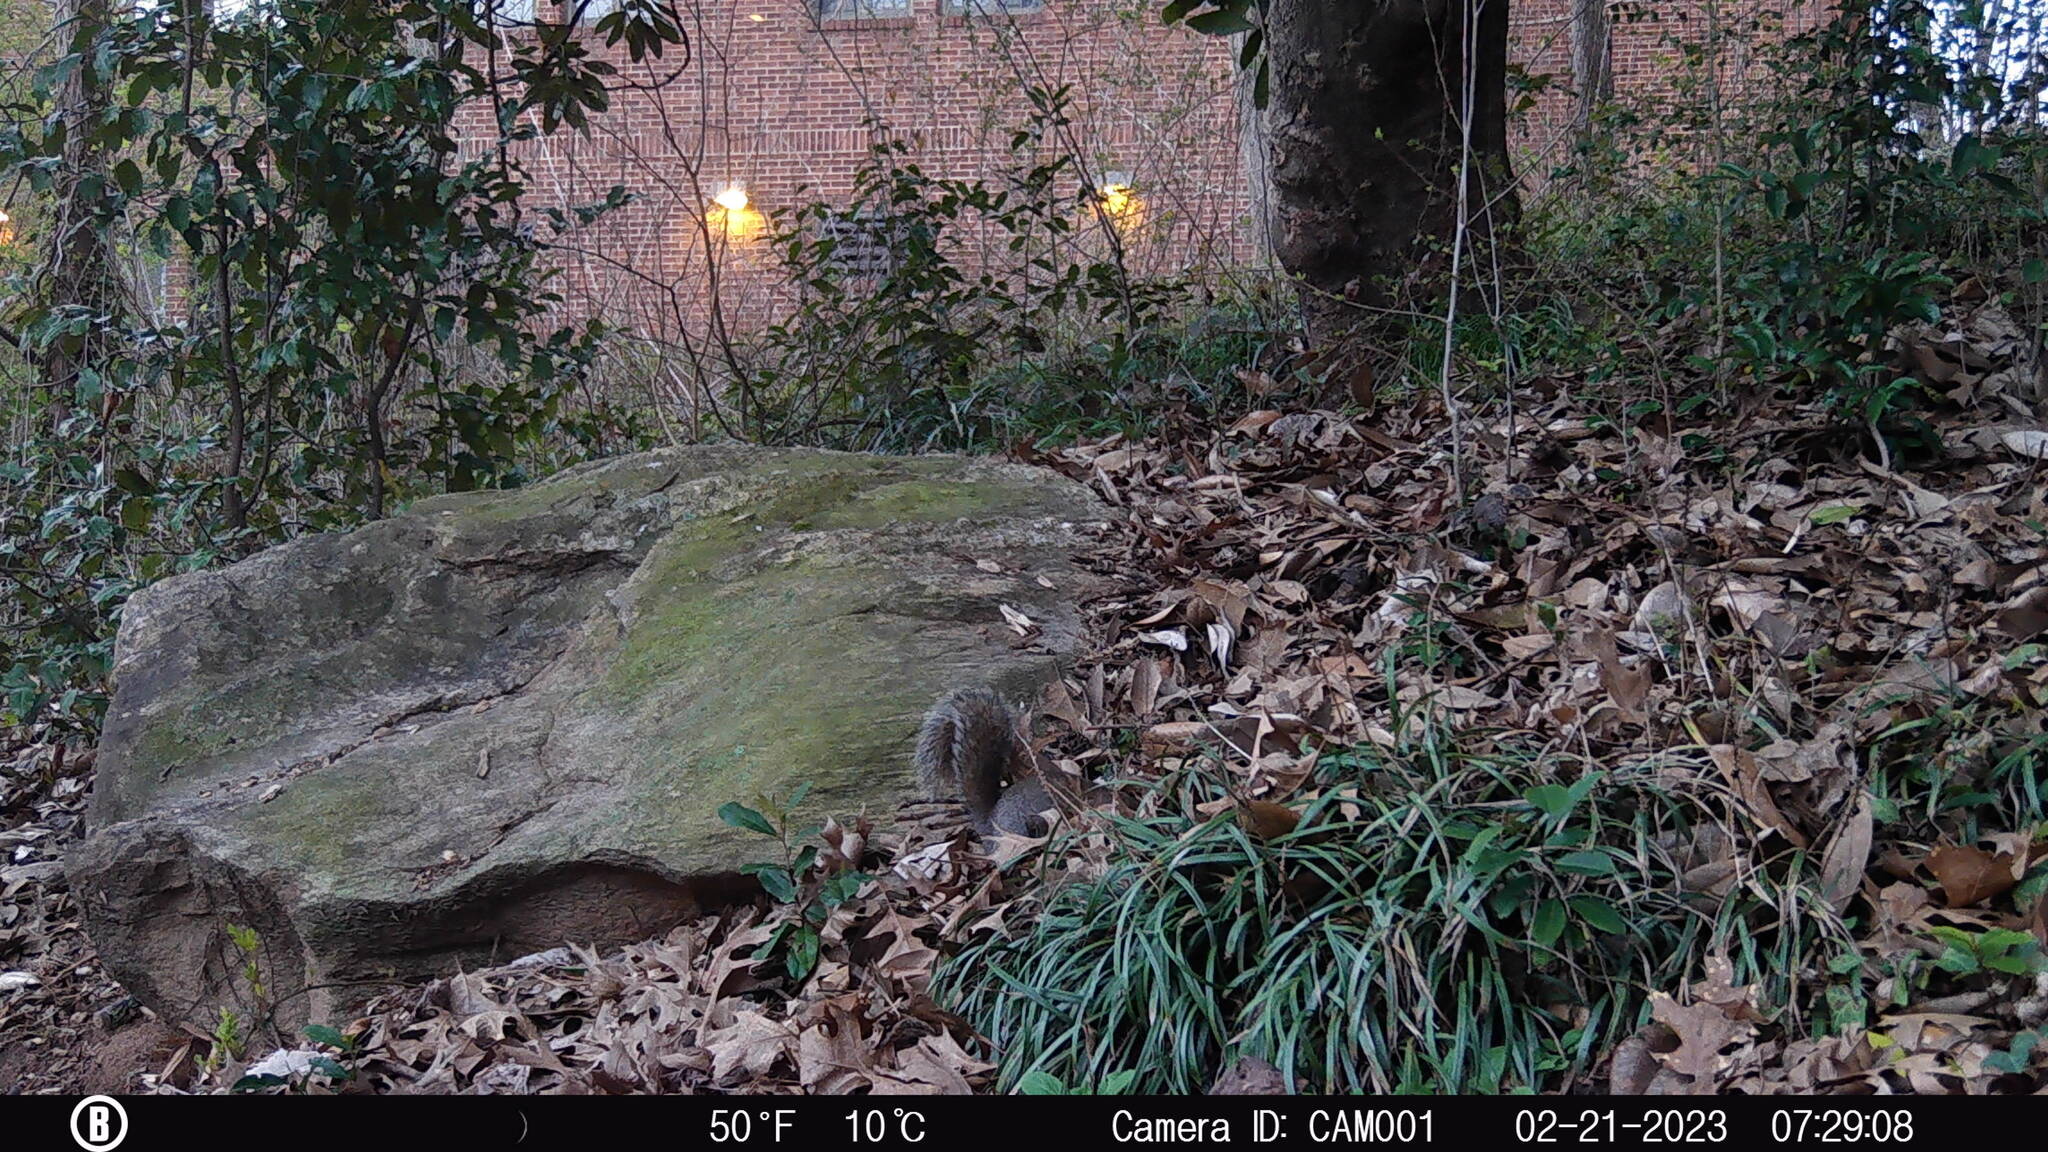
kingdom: Animalia
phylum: Chordata
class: Mammalia
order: Rodentia
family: Sciuridae
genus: Sciurus
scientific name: Sciurus carolinensis
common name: Eastern gray squirrel
